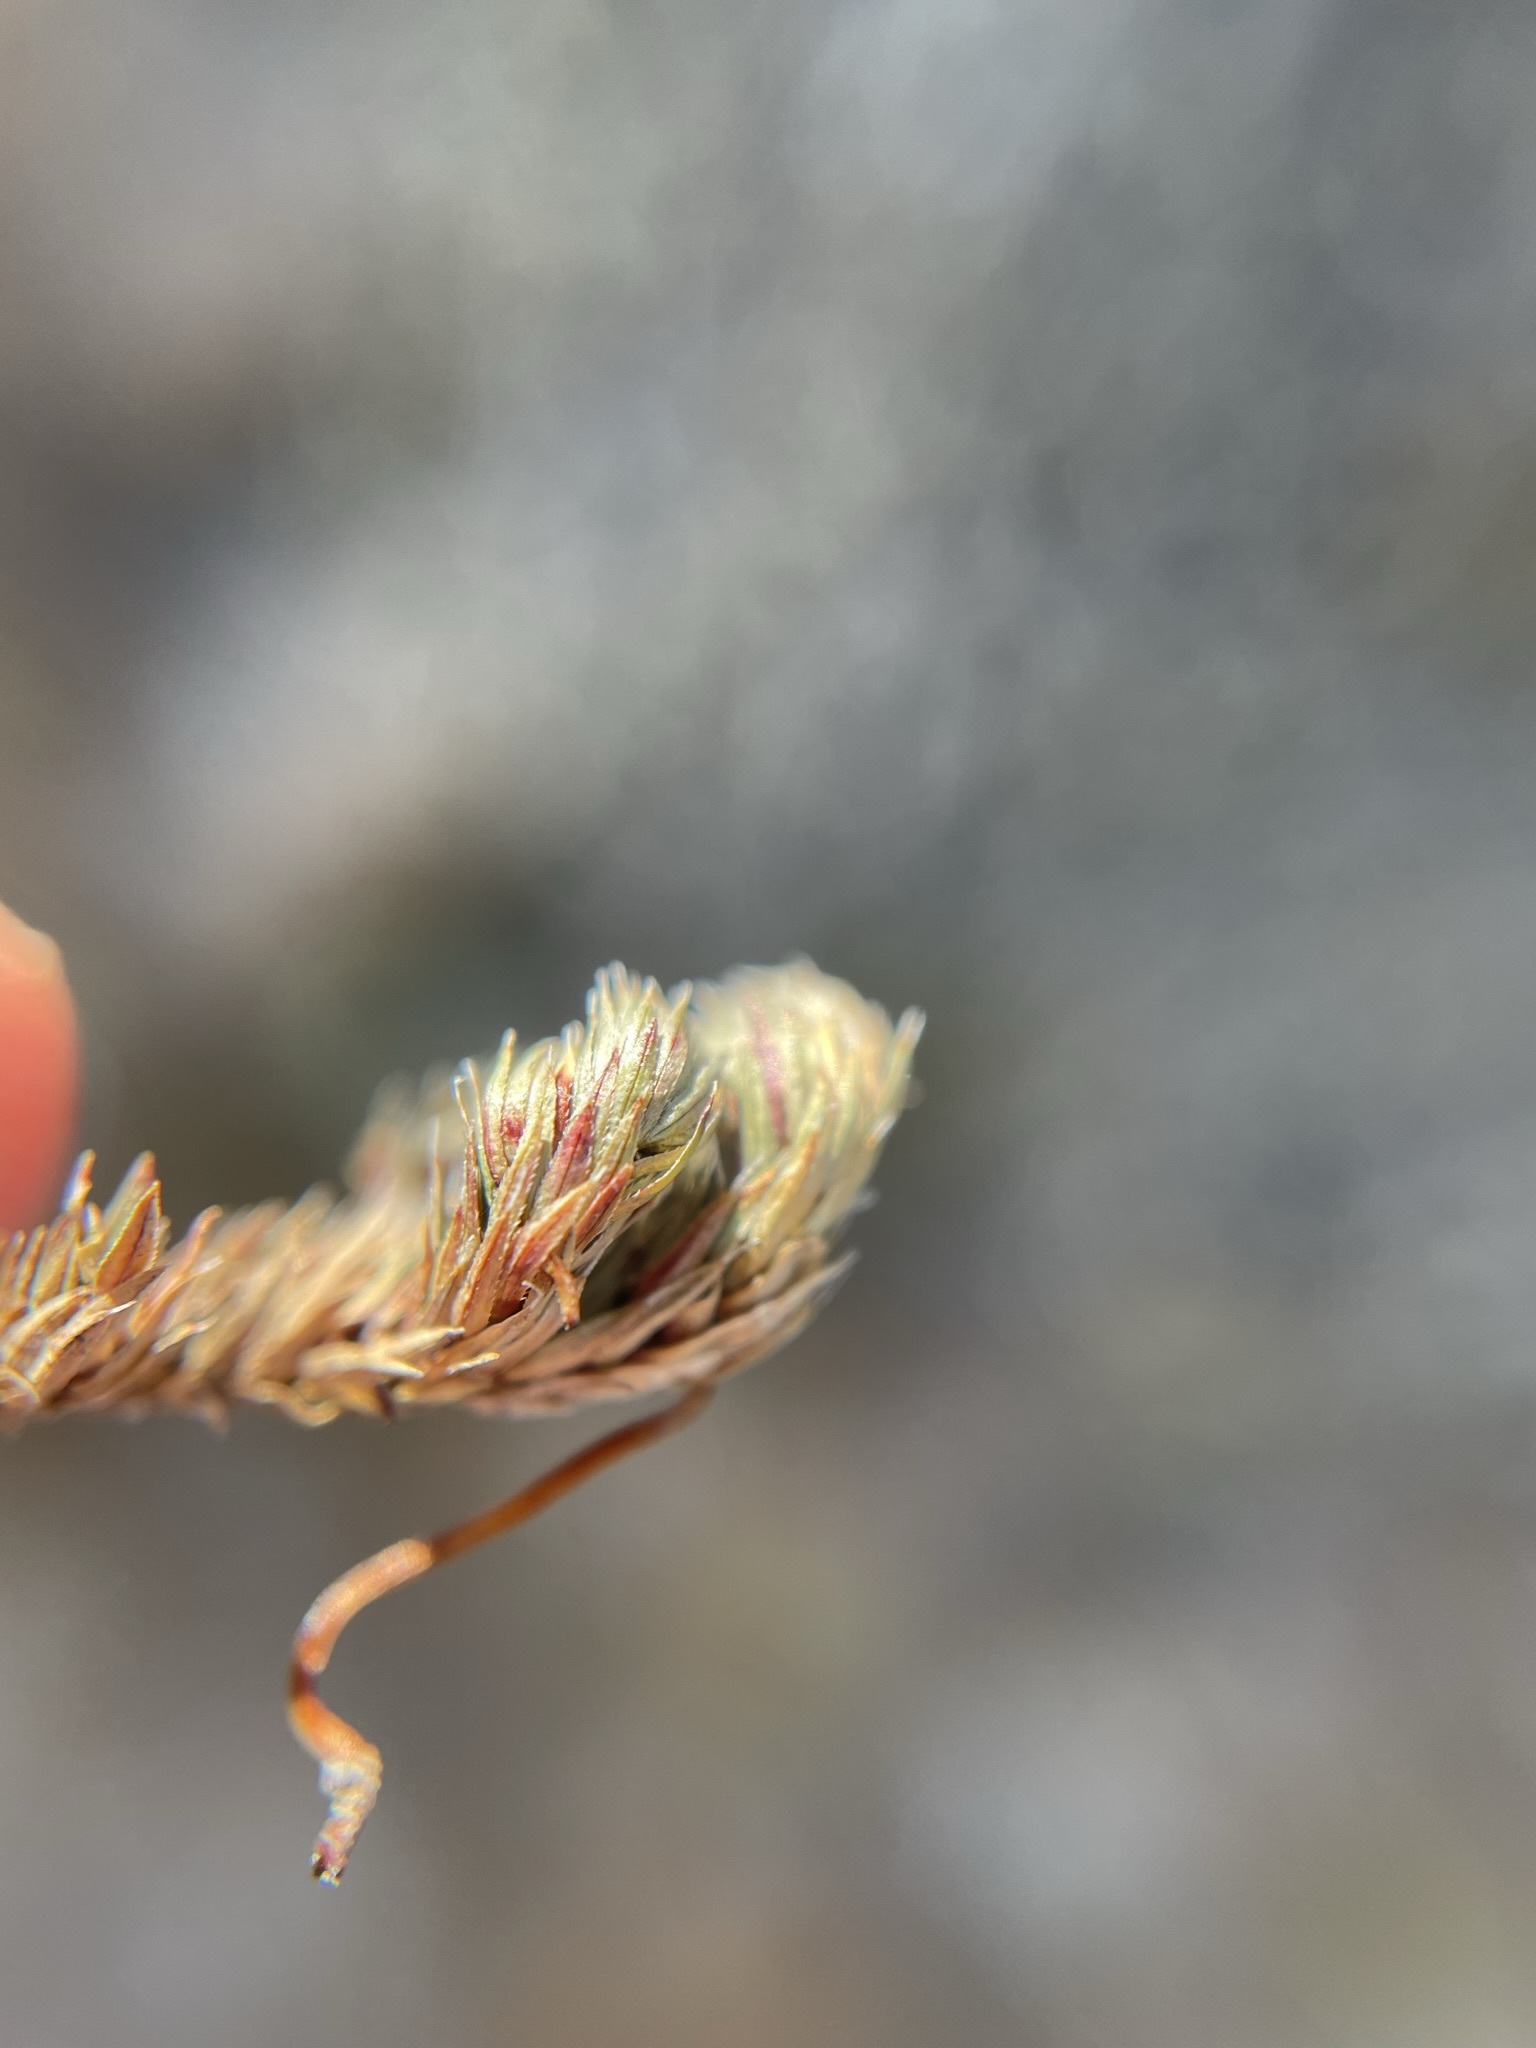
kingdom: Plantae
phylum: Tracheophyta
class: Lycopodiopsida
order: Selaginellales
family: Selaginellaceae
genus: Selaginella
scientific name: Selaginella hansenii
